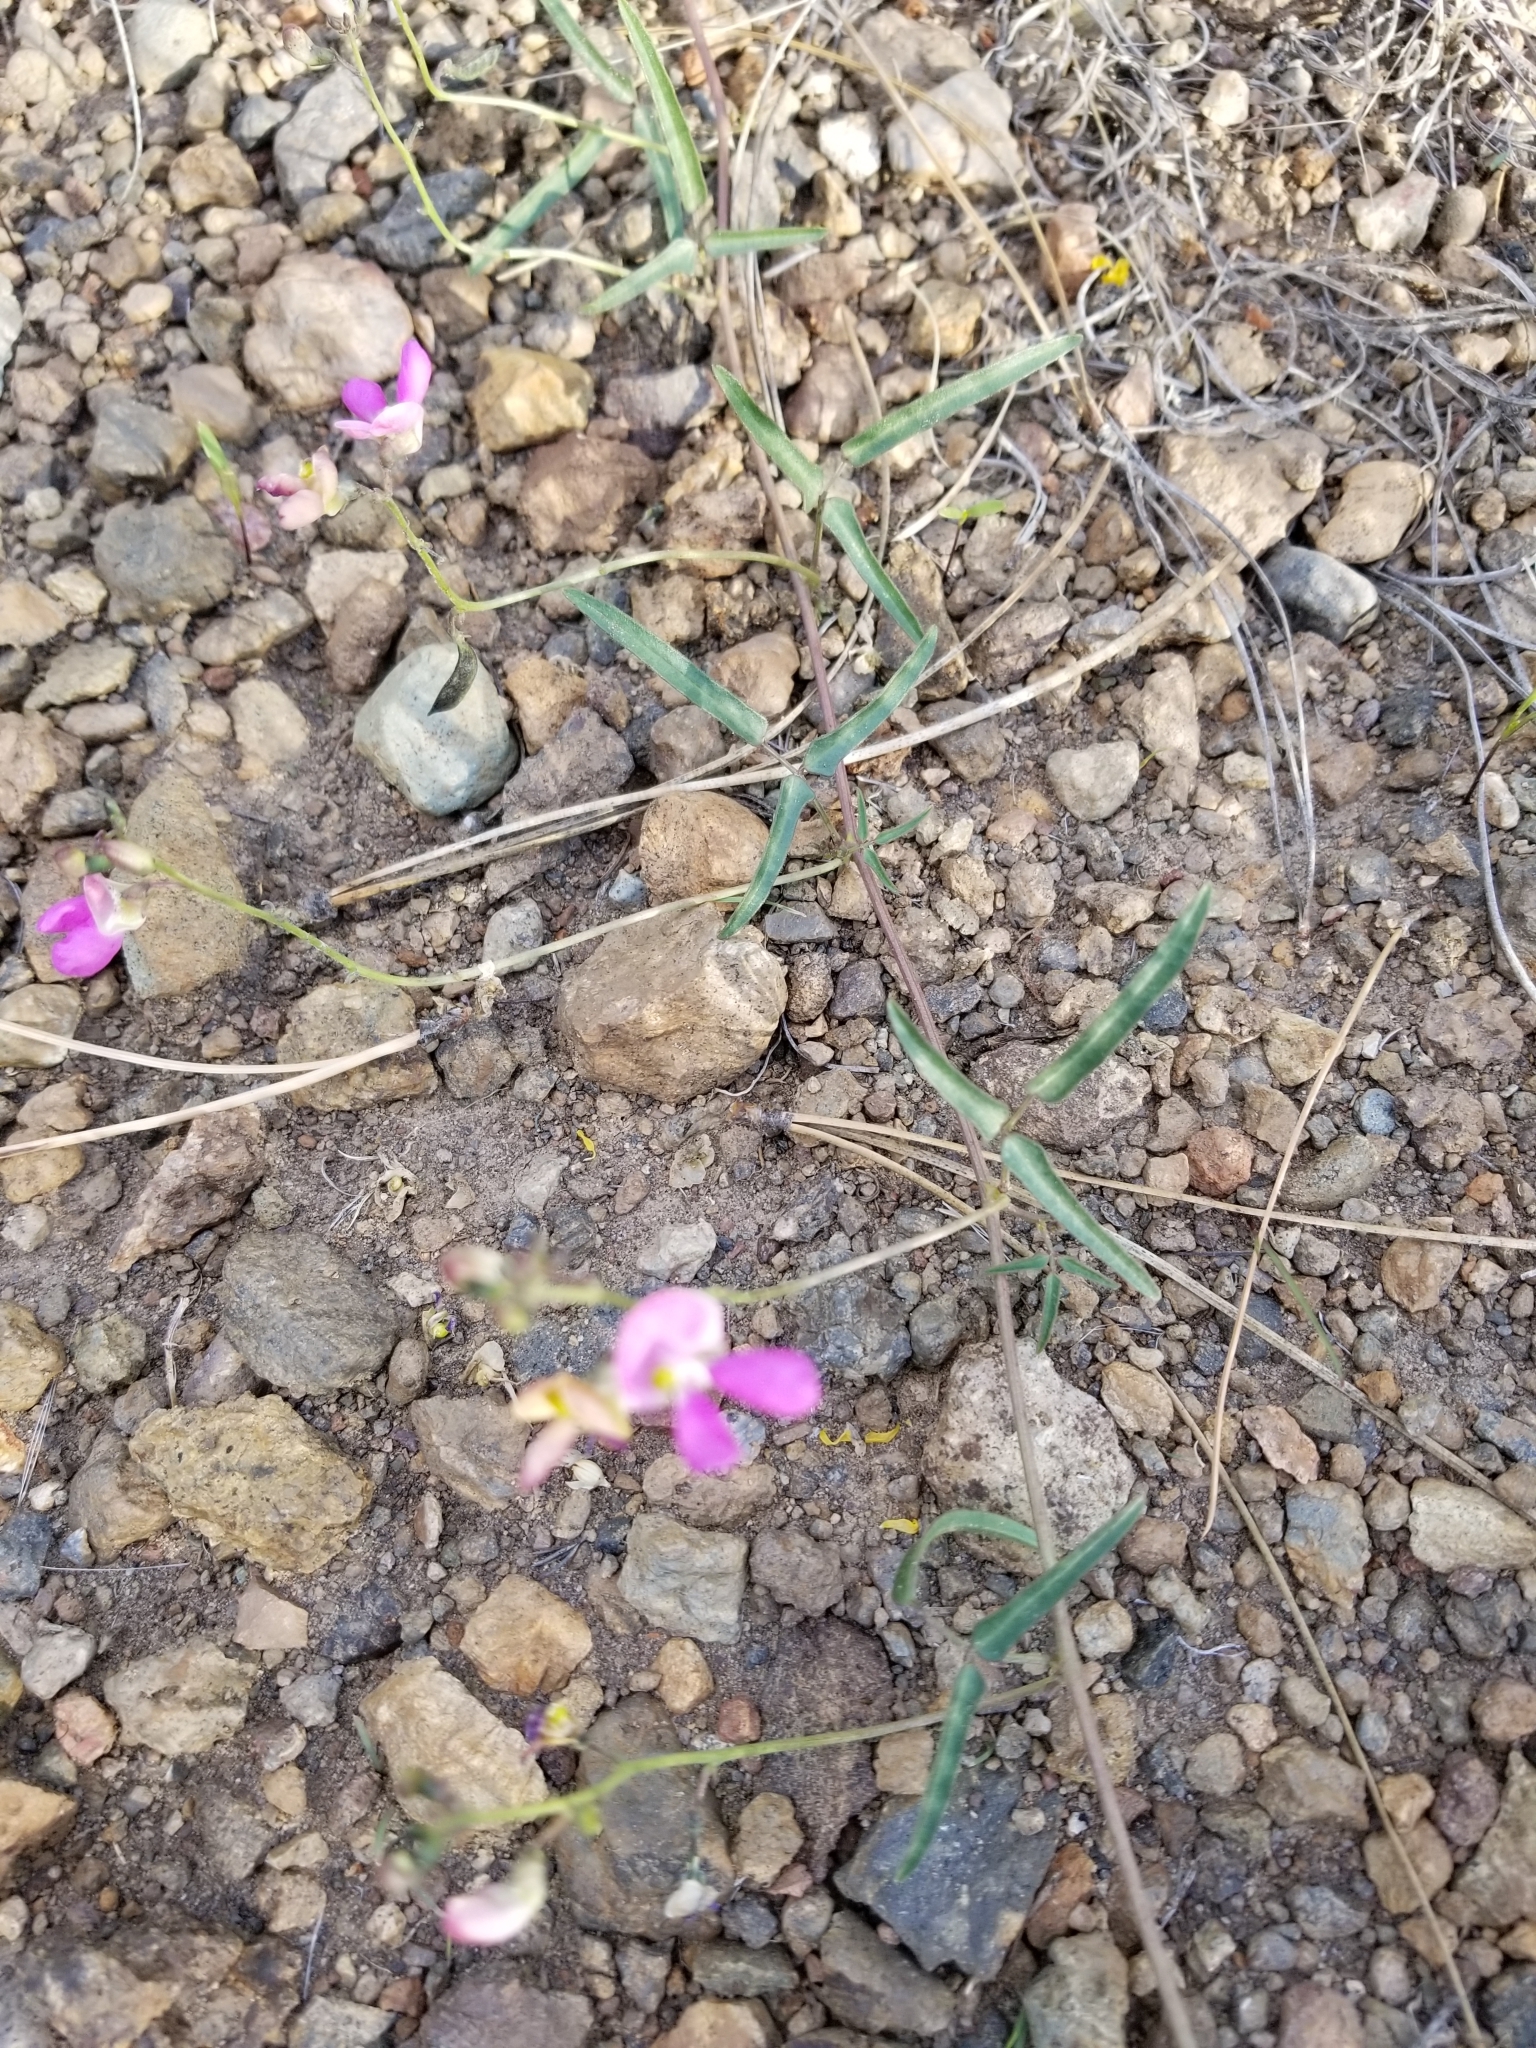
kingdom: Plantae
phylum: Tracheophyta
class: Magnoliopsida
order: Fabales
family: Fabaceae
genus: Phaseolus
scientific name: Phaseolus angustissimus
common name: Slimleaf bean
